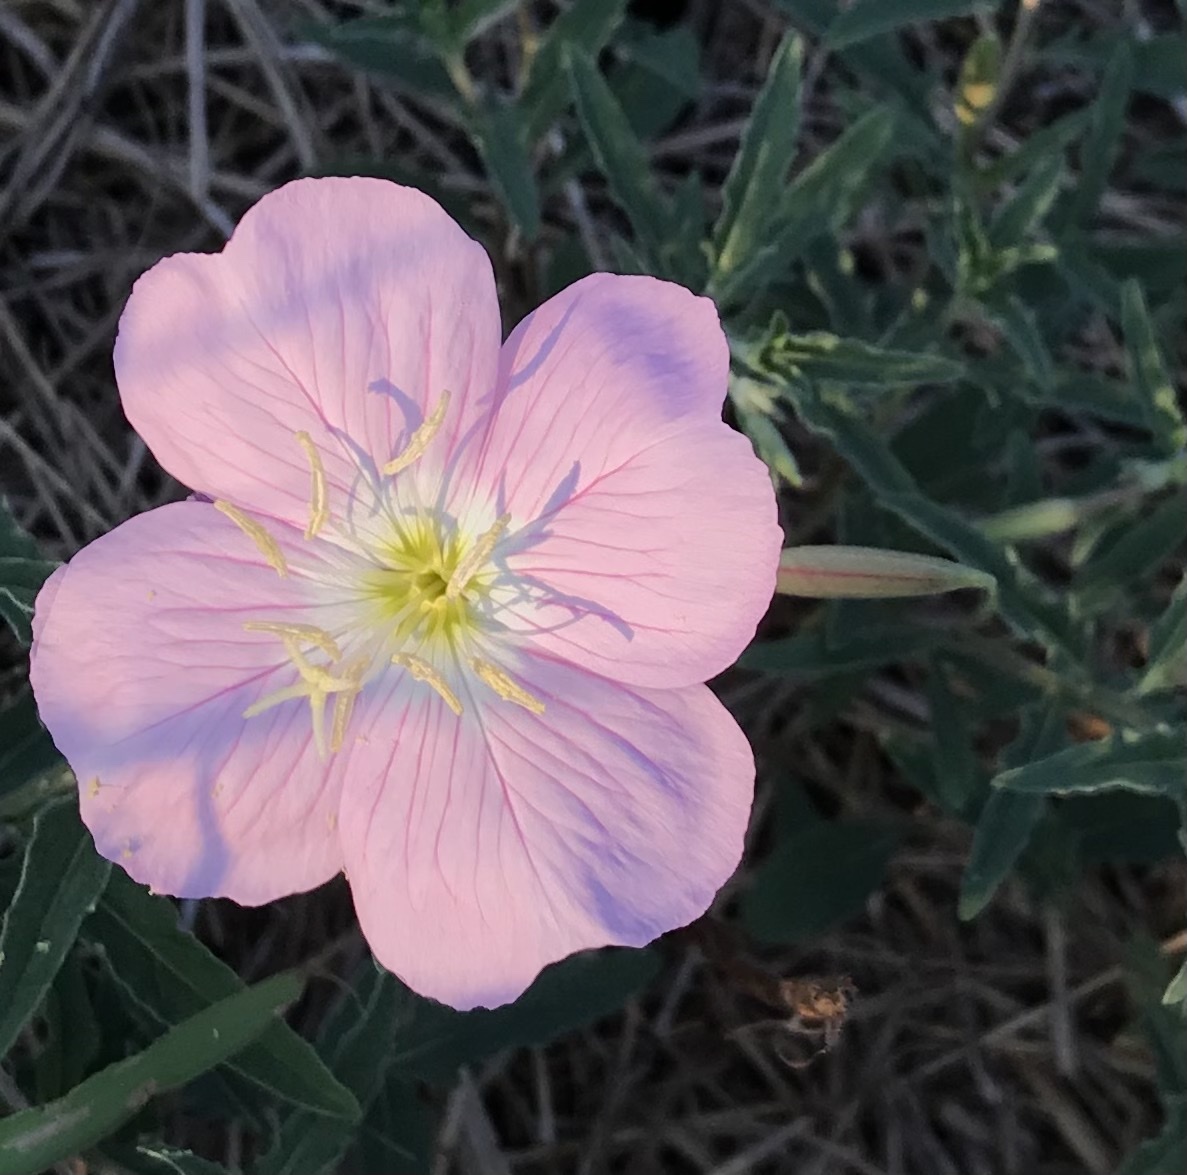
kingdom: Plantae
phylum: Tracheophyta
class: Magnoliopsida
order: Myrtales
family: Onagraceae
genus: Oenothera
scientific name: Oenothera speciosa
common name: White evening-primrose
